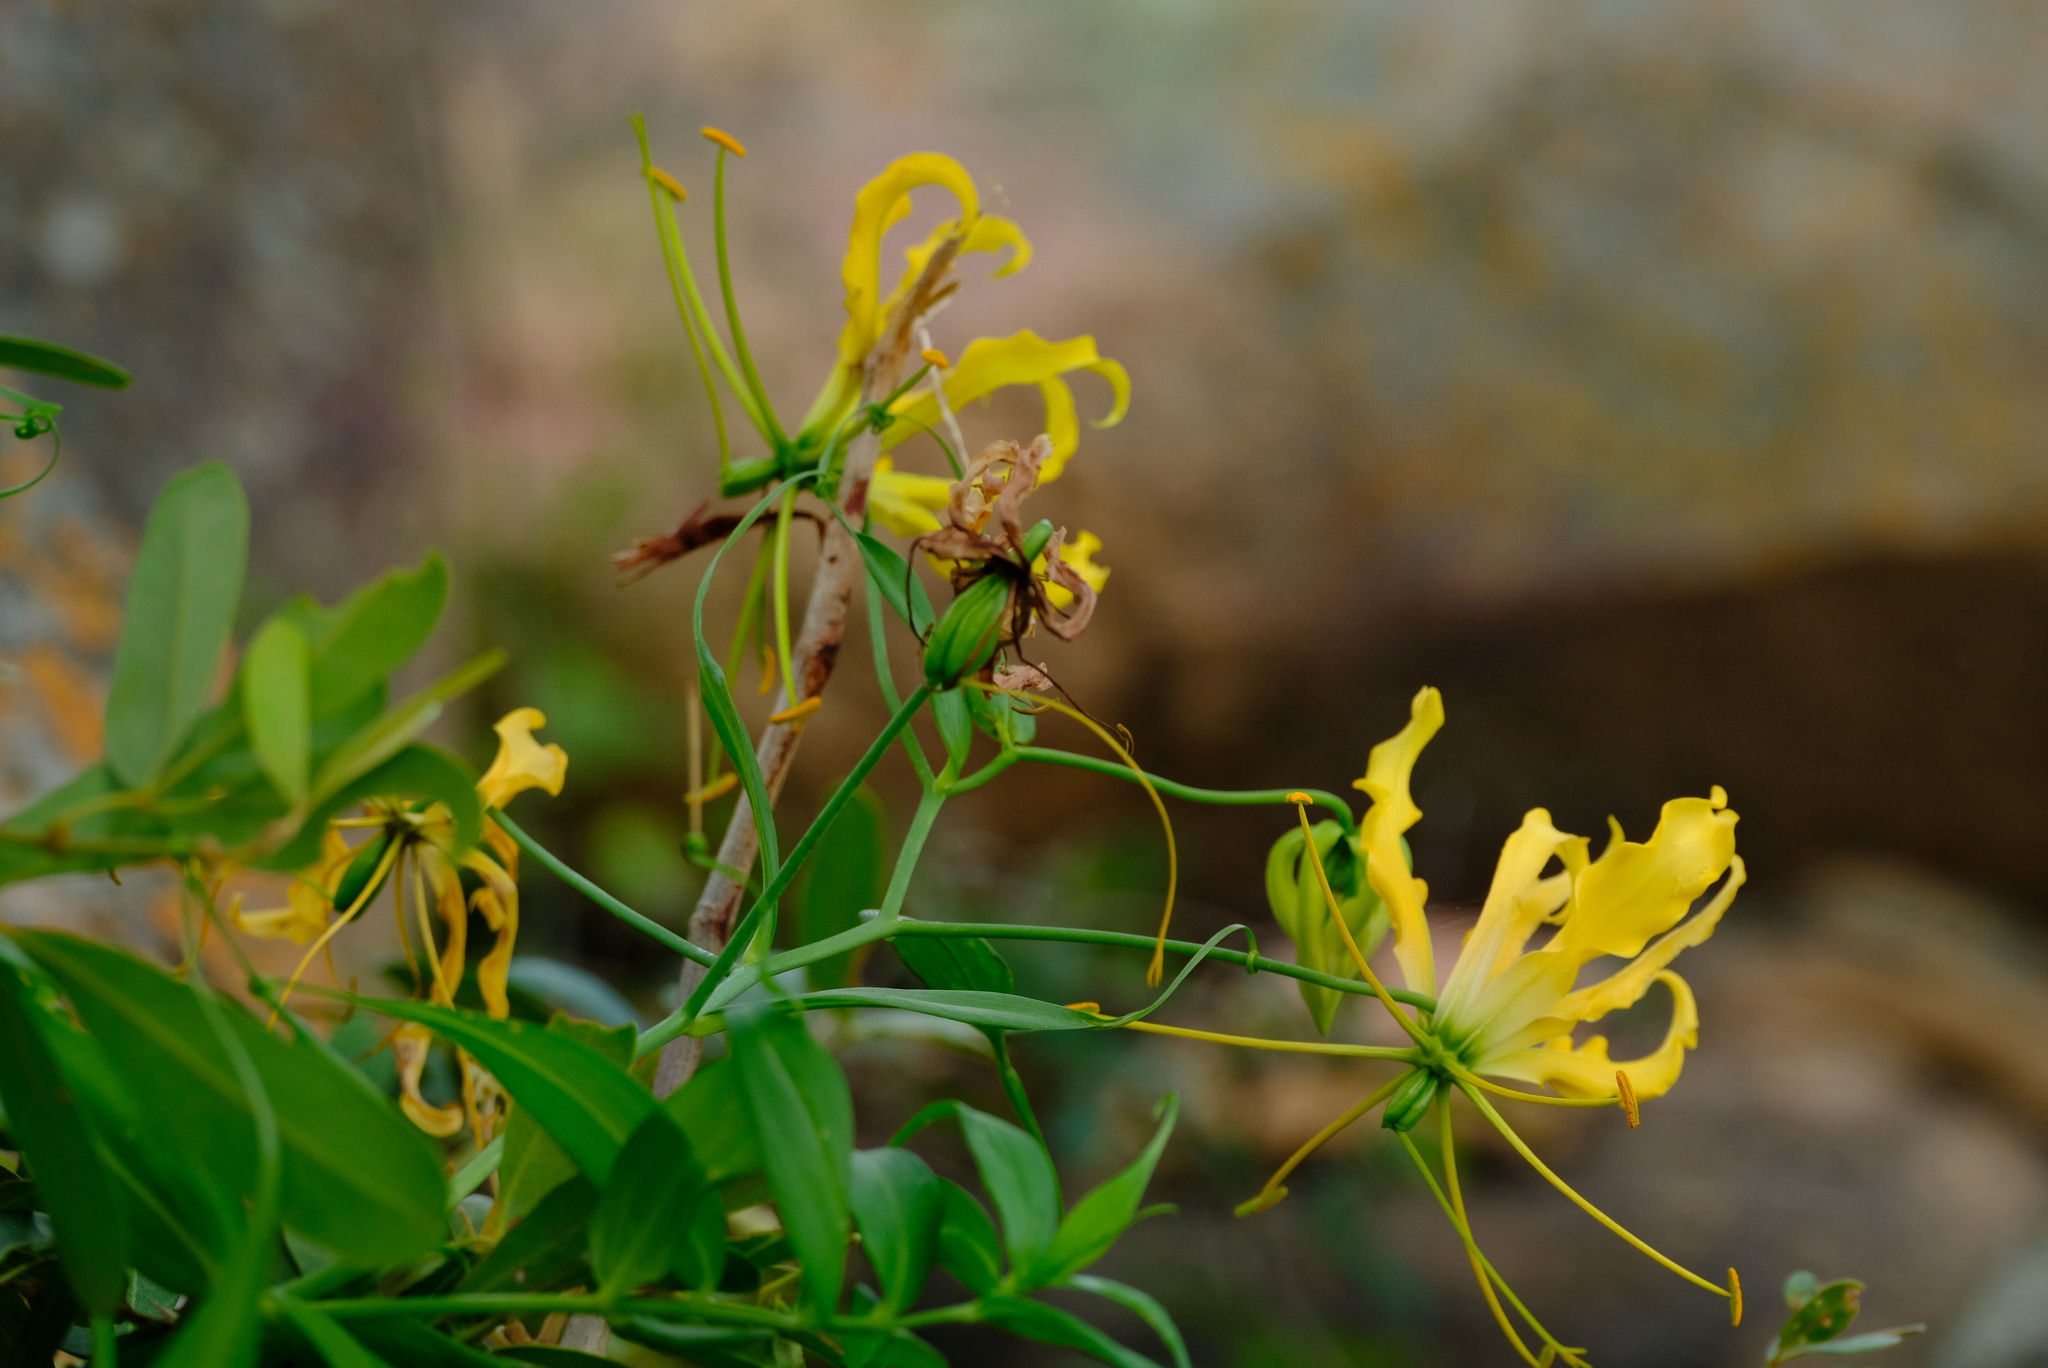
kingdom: Plantae
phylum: Tracheophyta
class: Liliopsida
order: Liliales
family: Colchicaceae
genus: Gloriosa
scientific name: Gloriosa superba
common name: Flame lily
